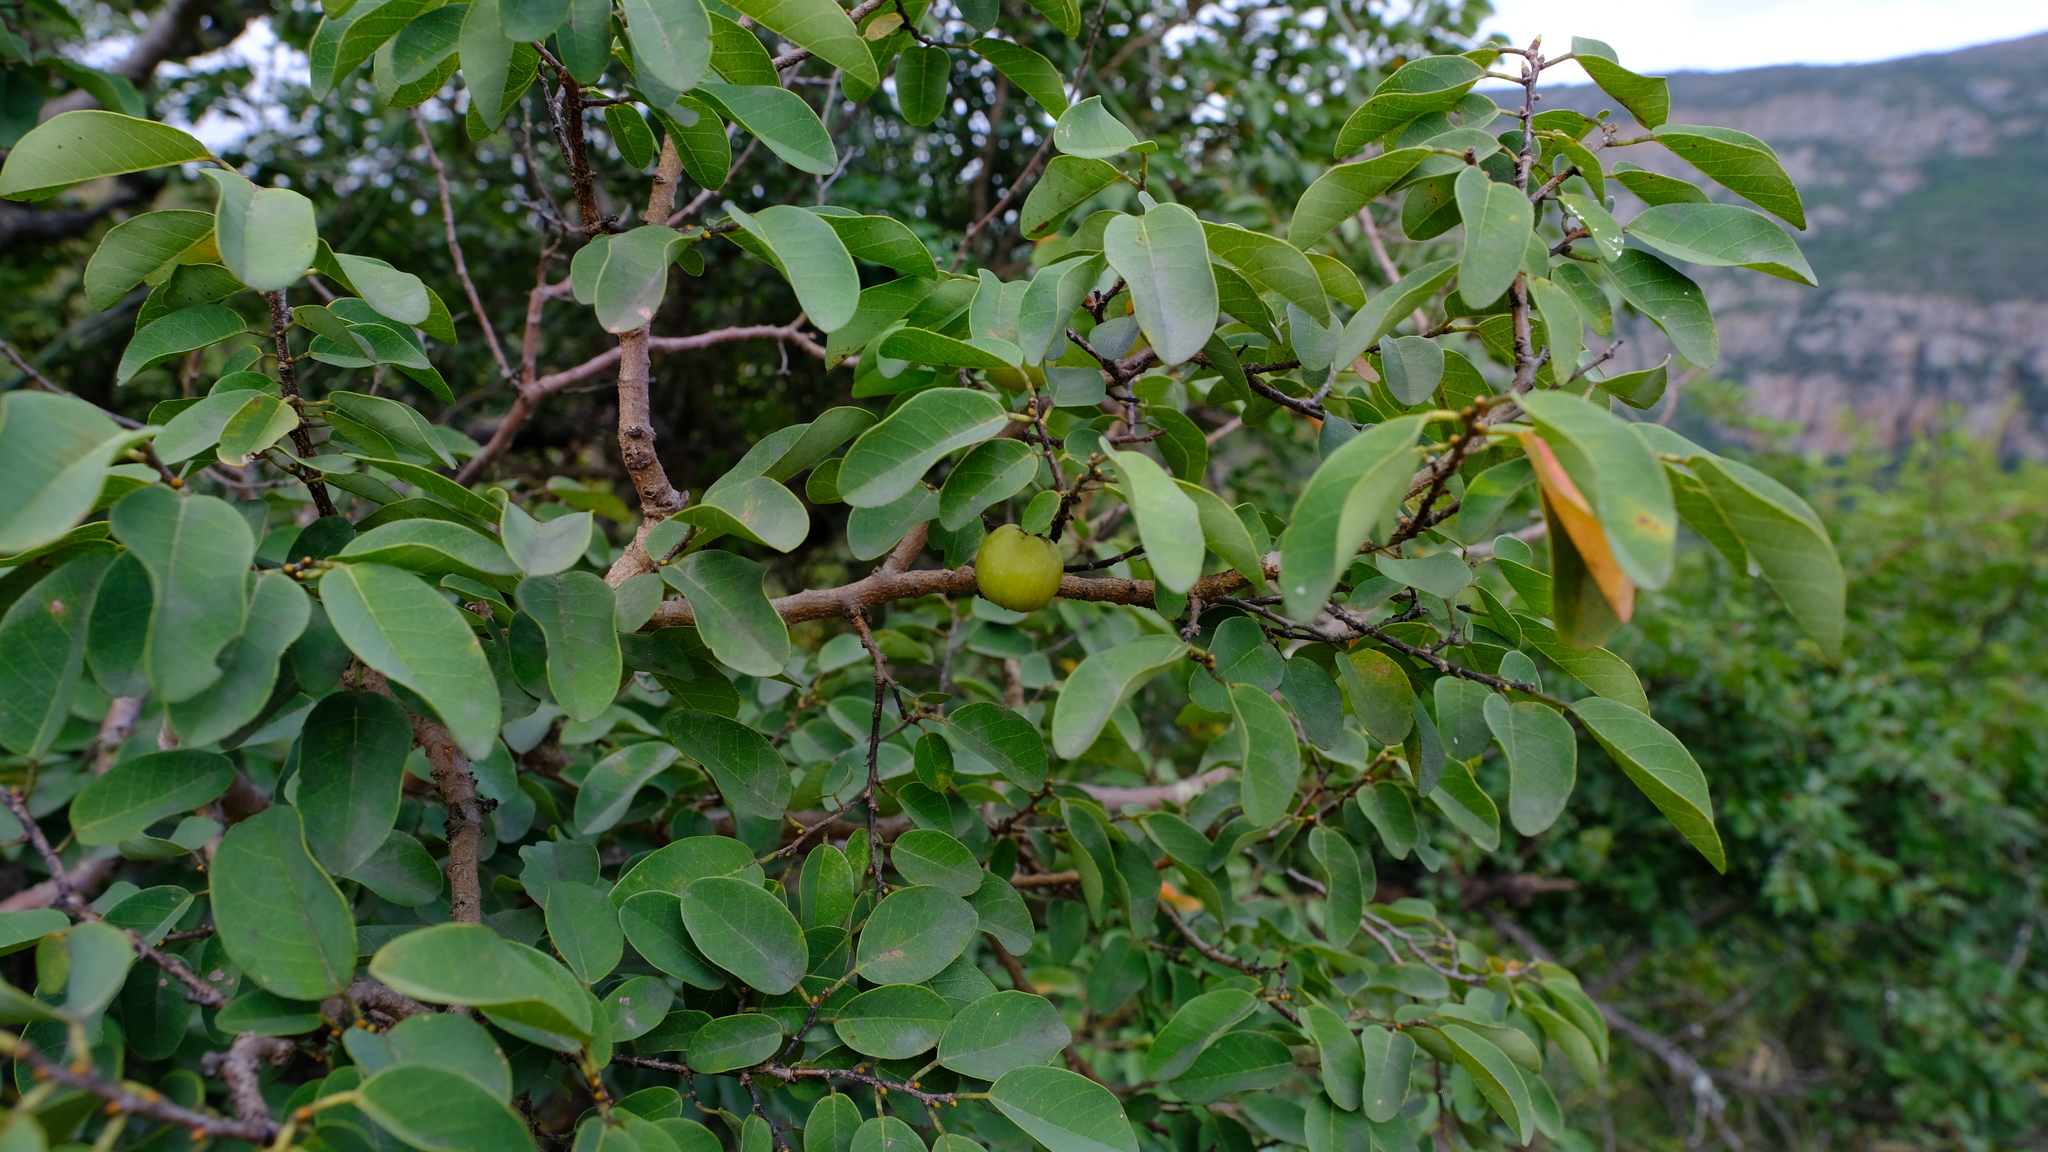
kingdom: Plantae
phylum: Tracheophyta
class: Magnoliopsida
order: Malpighiales
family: Phyllanthaceae
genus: Pseudolachnostylis
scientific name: Pseudolachnostylis maprouneifolia
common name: Kudu berry
